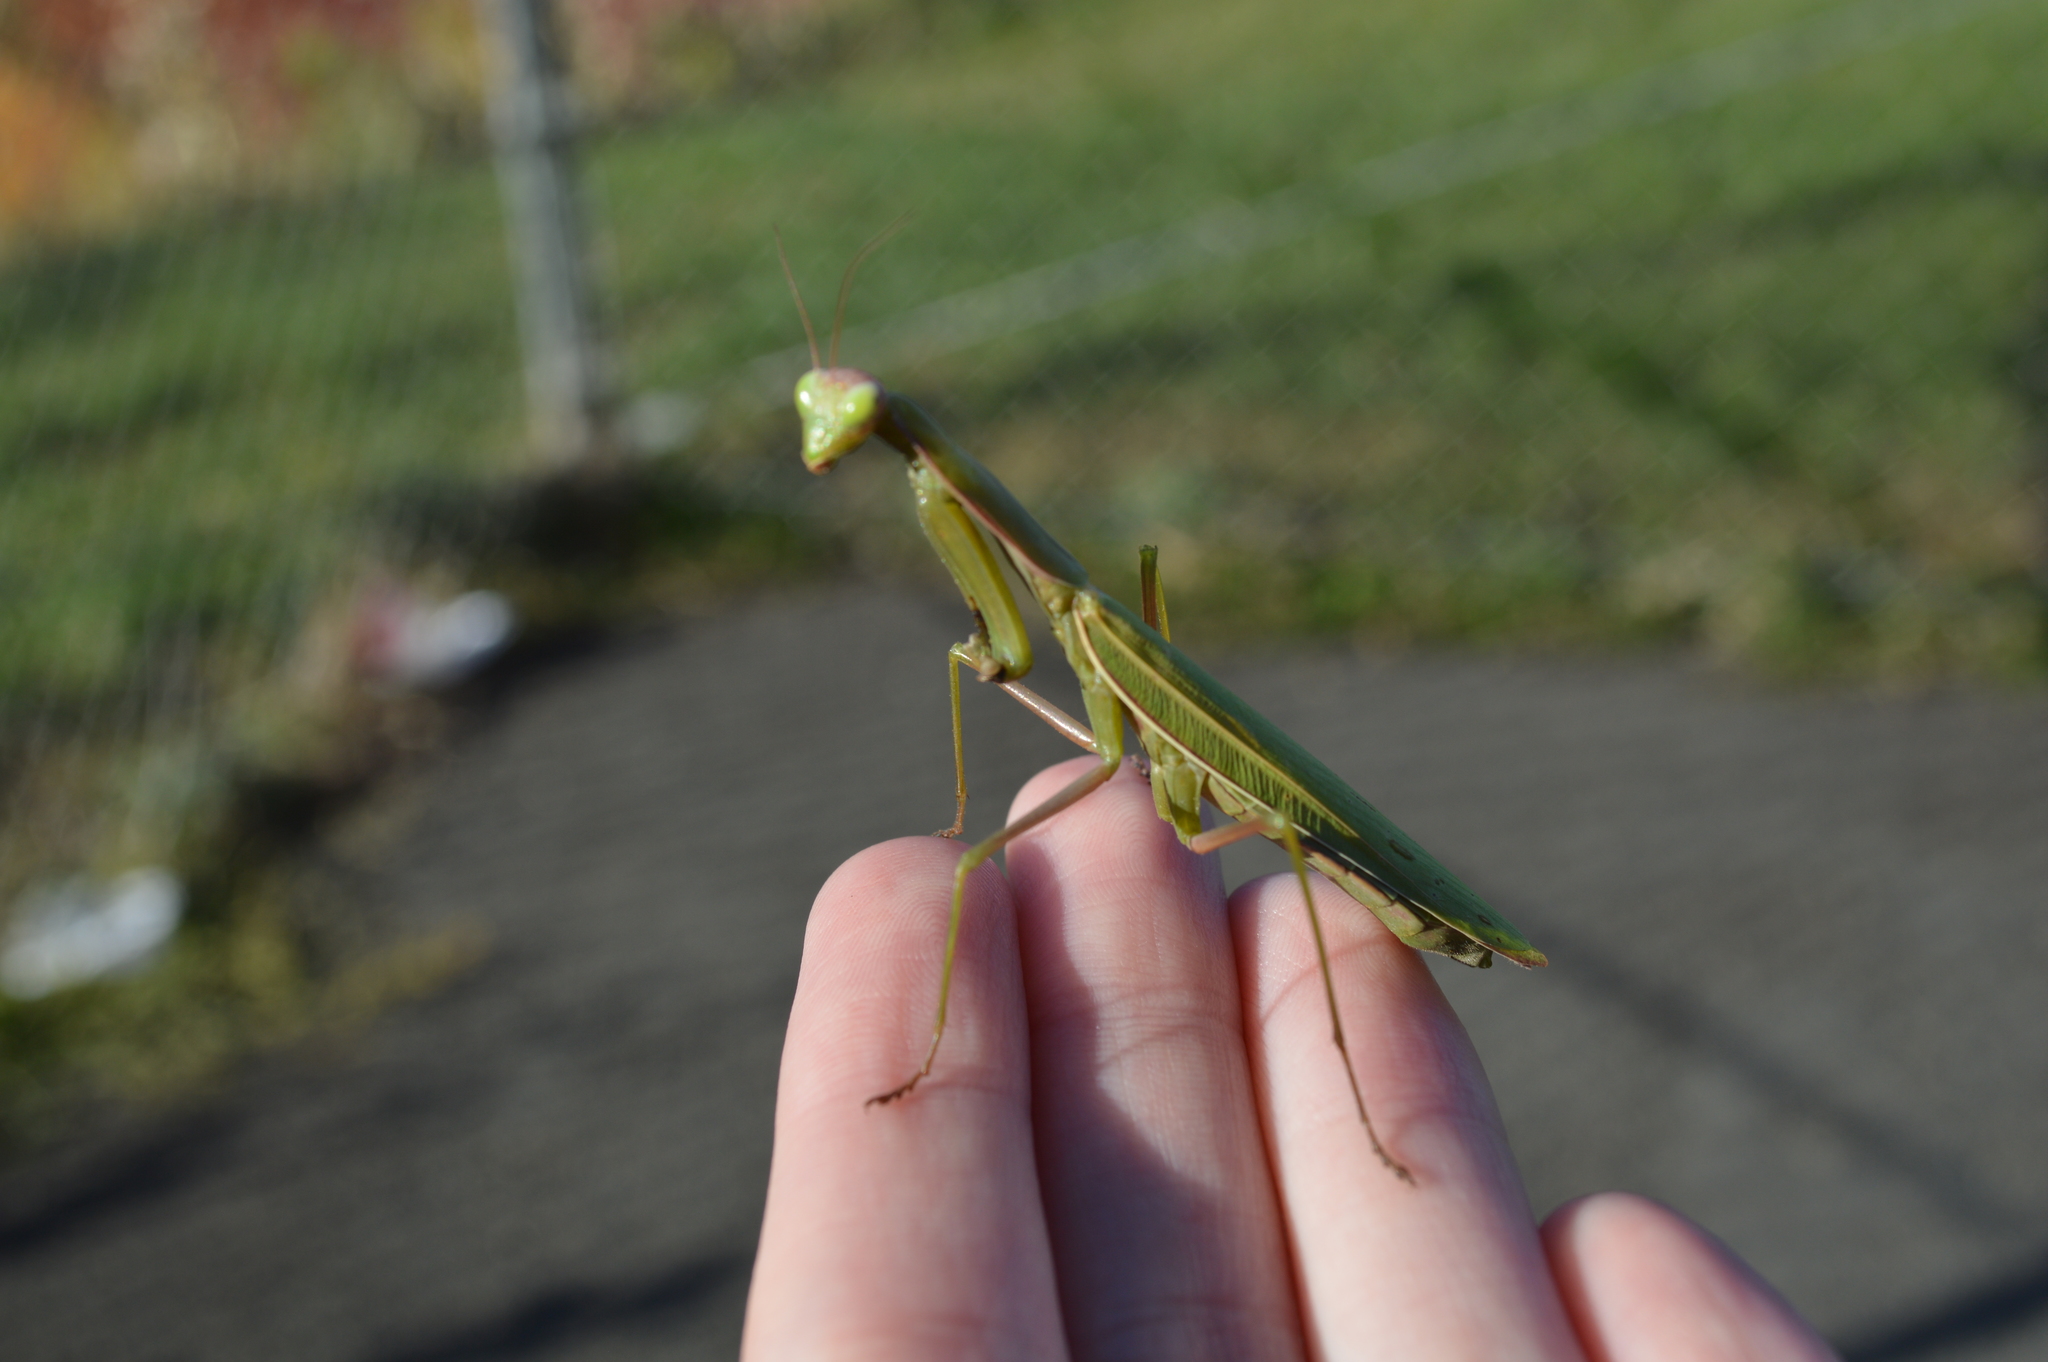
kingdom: Animalia
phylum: Arthropoda
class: Insecta
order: Mantodea
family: Mantidae
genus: Mantis
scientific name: Mantis religiosa
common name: Praying mantis
